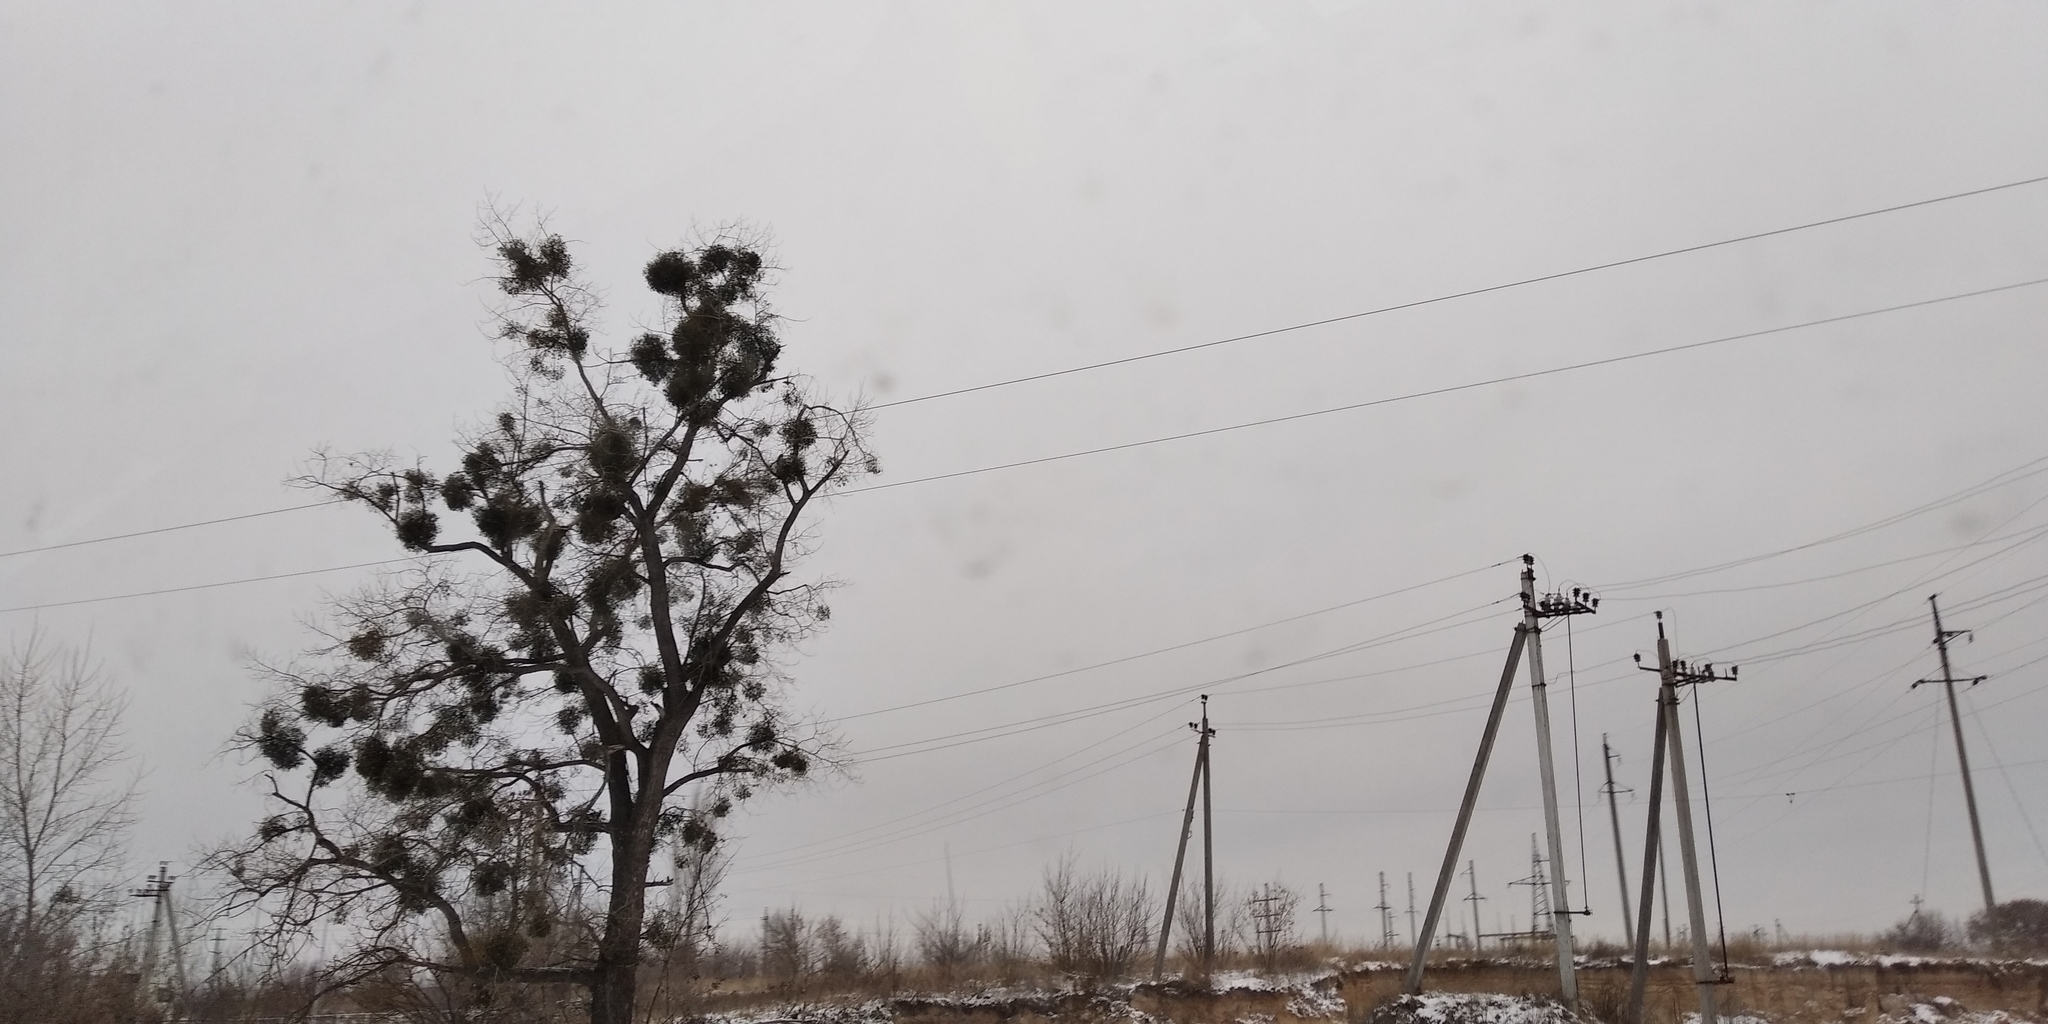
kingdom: Plantae
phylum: Tracheophyta
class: Magnoliopsida
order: Santalales
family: Viscaceae
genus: Viscum
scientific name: Viscum album
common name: Mistletoe
